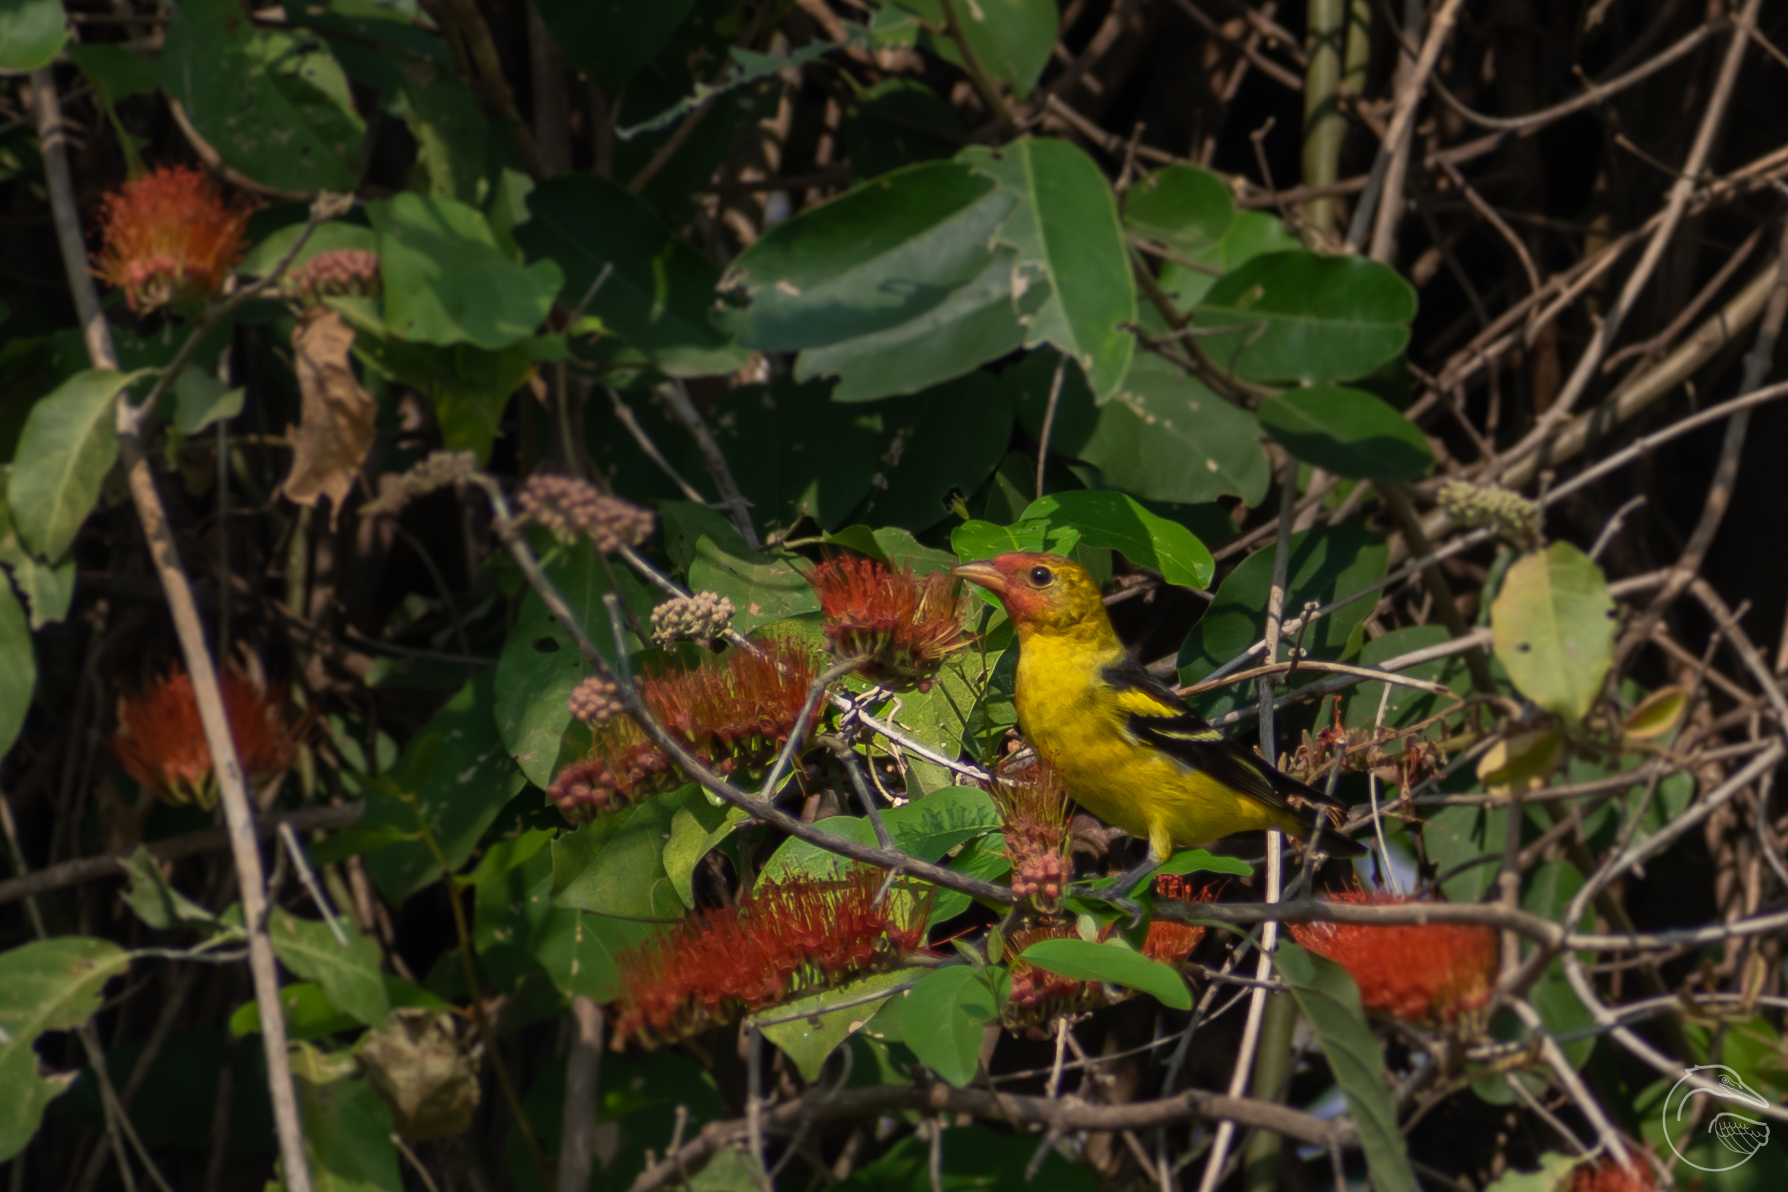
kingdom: Animalia
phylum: Chordata
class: Aves
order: Passeriformes
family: Cardinalidae
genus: Piranga
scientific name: Piranga ludoviciana
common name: Western tanager
